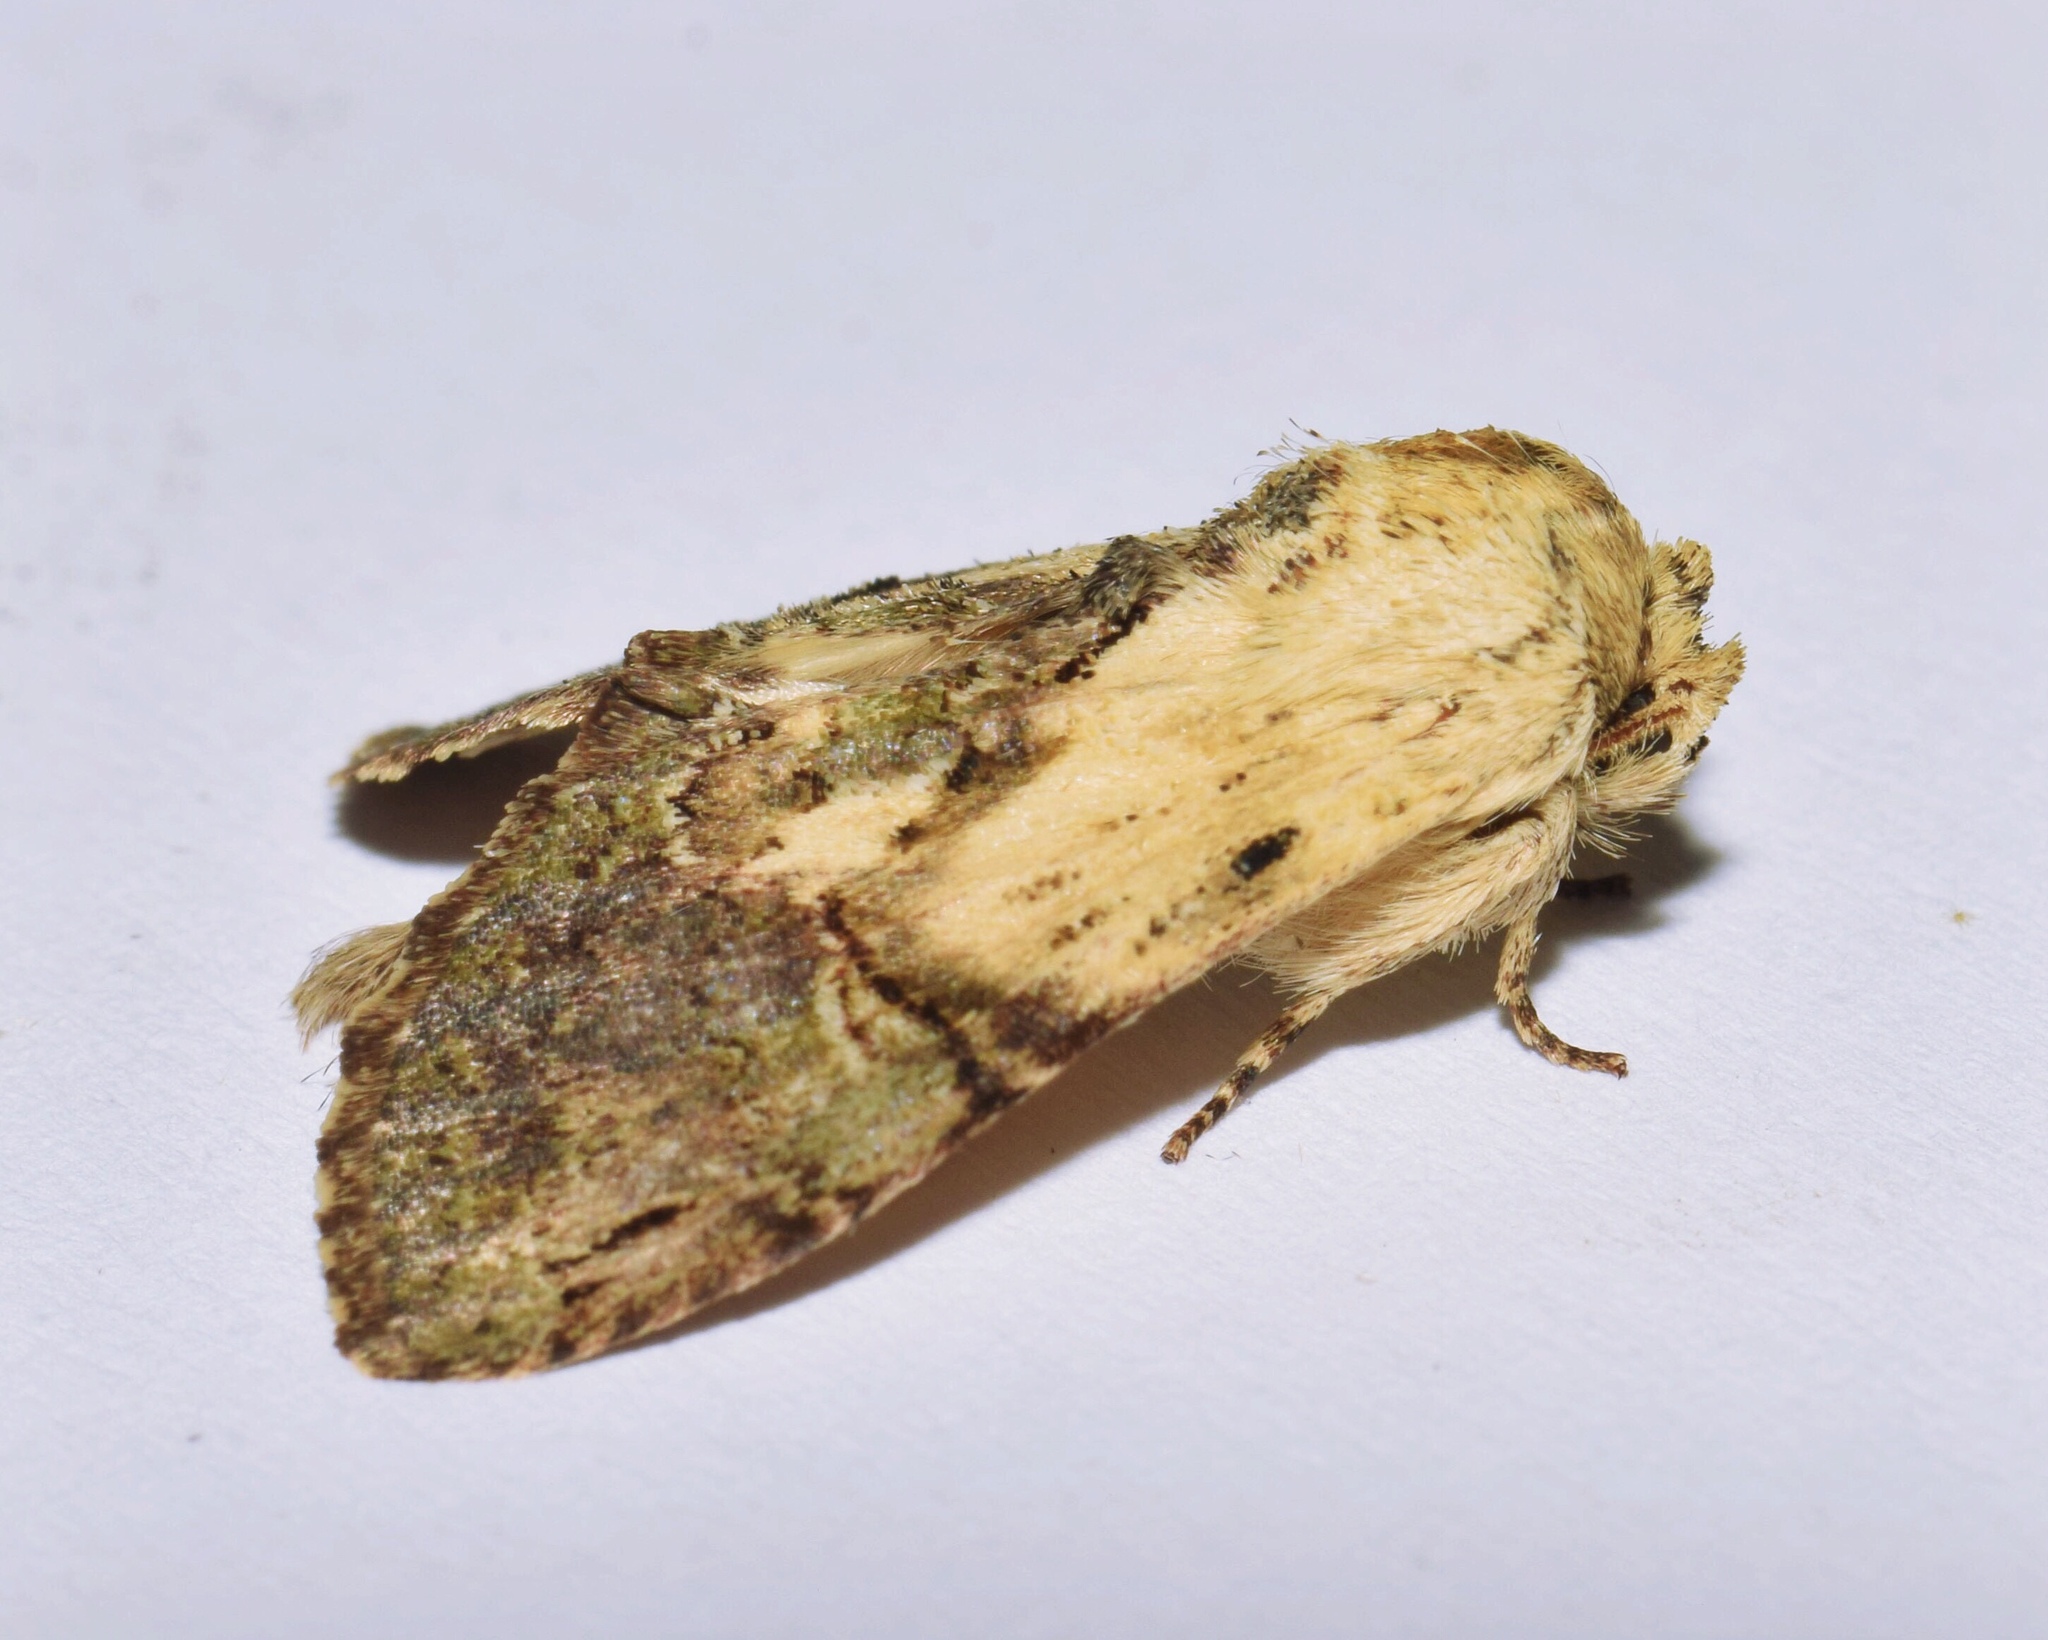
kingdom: Animalia
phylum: Arthropoda
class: Insecta
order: Lepidoptera
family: Notodontidae
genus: Stemmatophalera
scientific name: Stemmatophalera sjostedti
